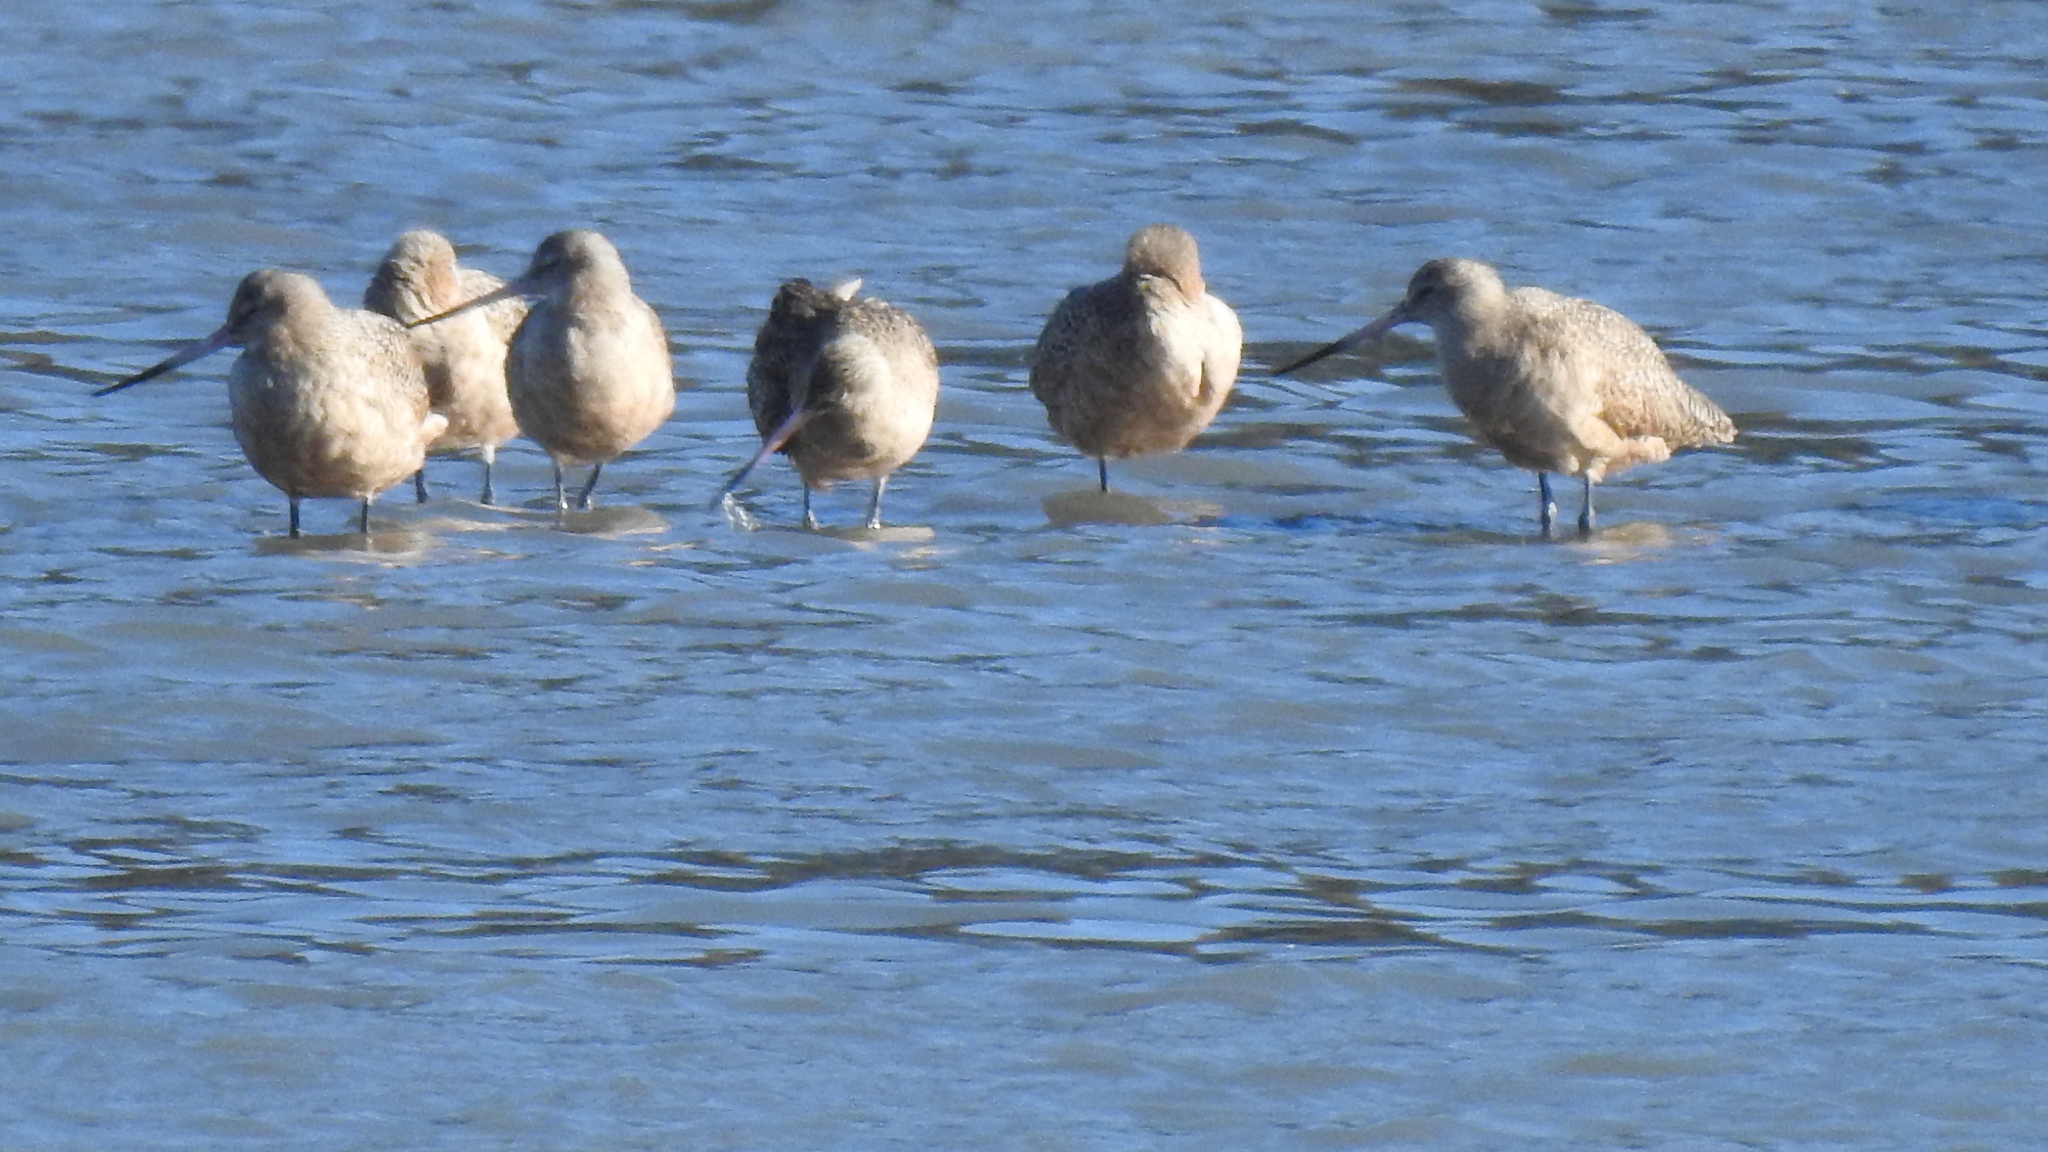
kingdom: Animalia
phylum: Chordata
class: Aves
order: Charadriiformes
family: Scolopacidae
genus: Limosa
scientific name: Limosa fedoa
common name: Marbled godwit
